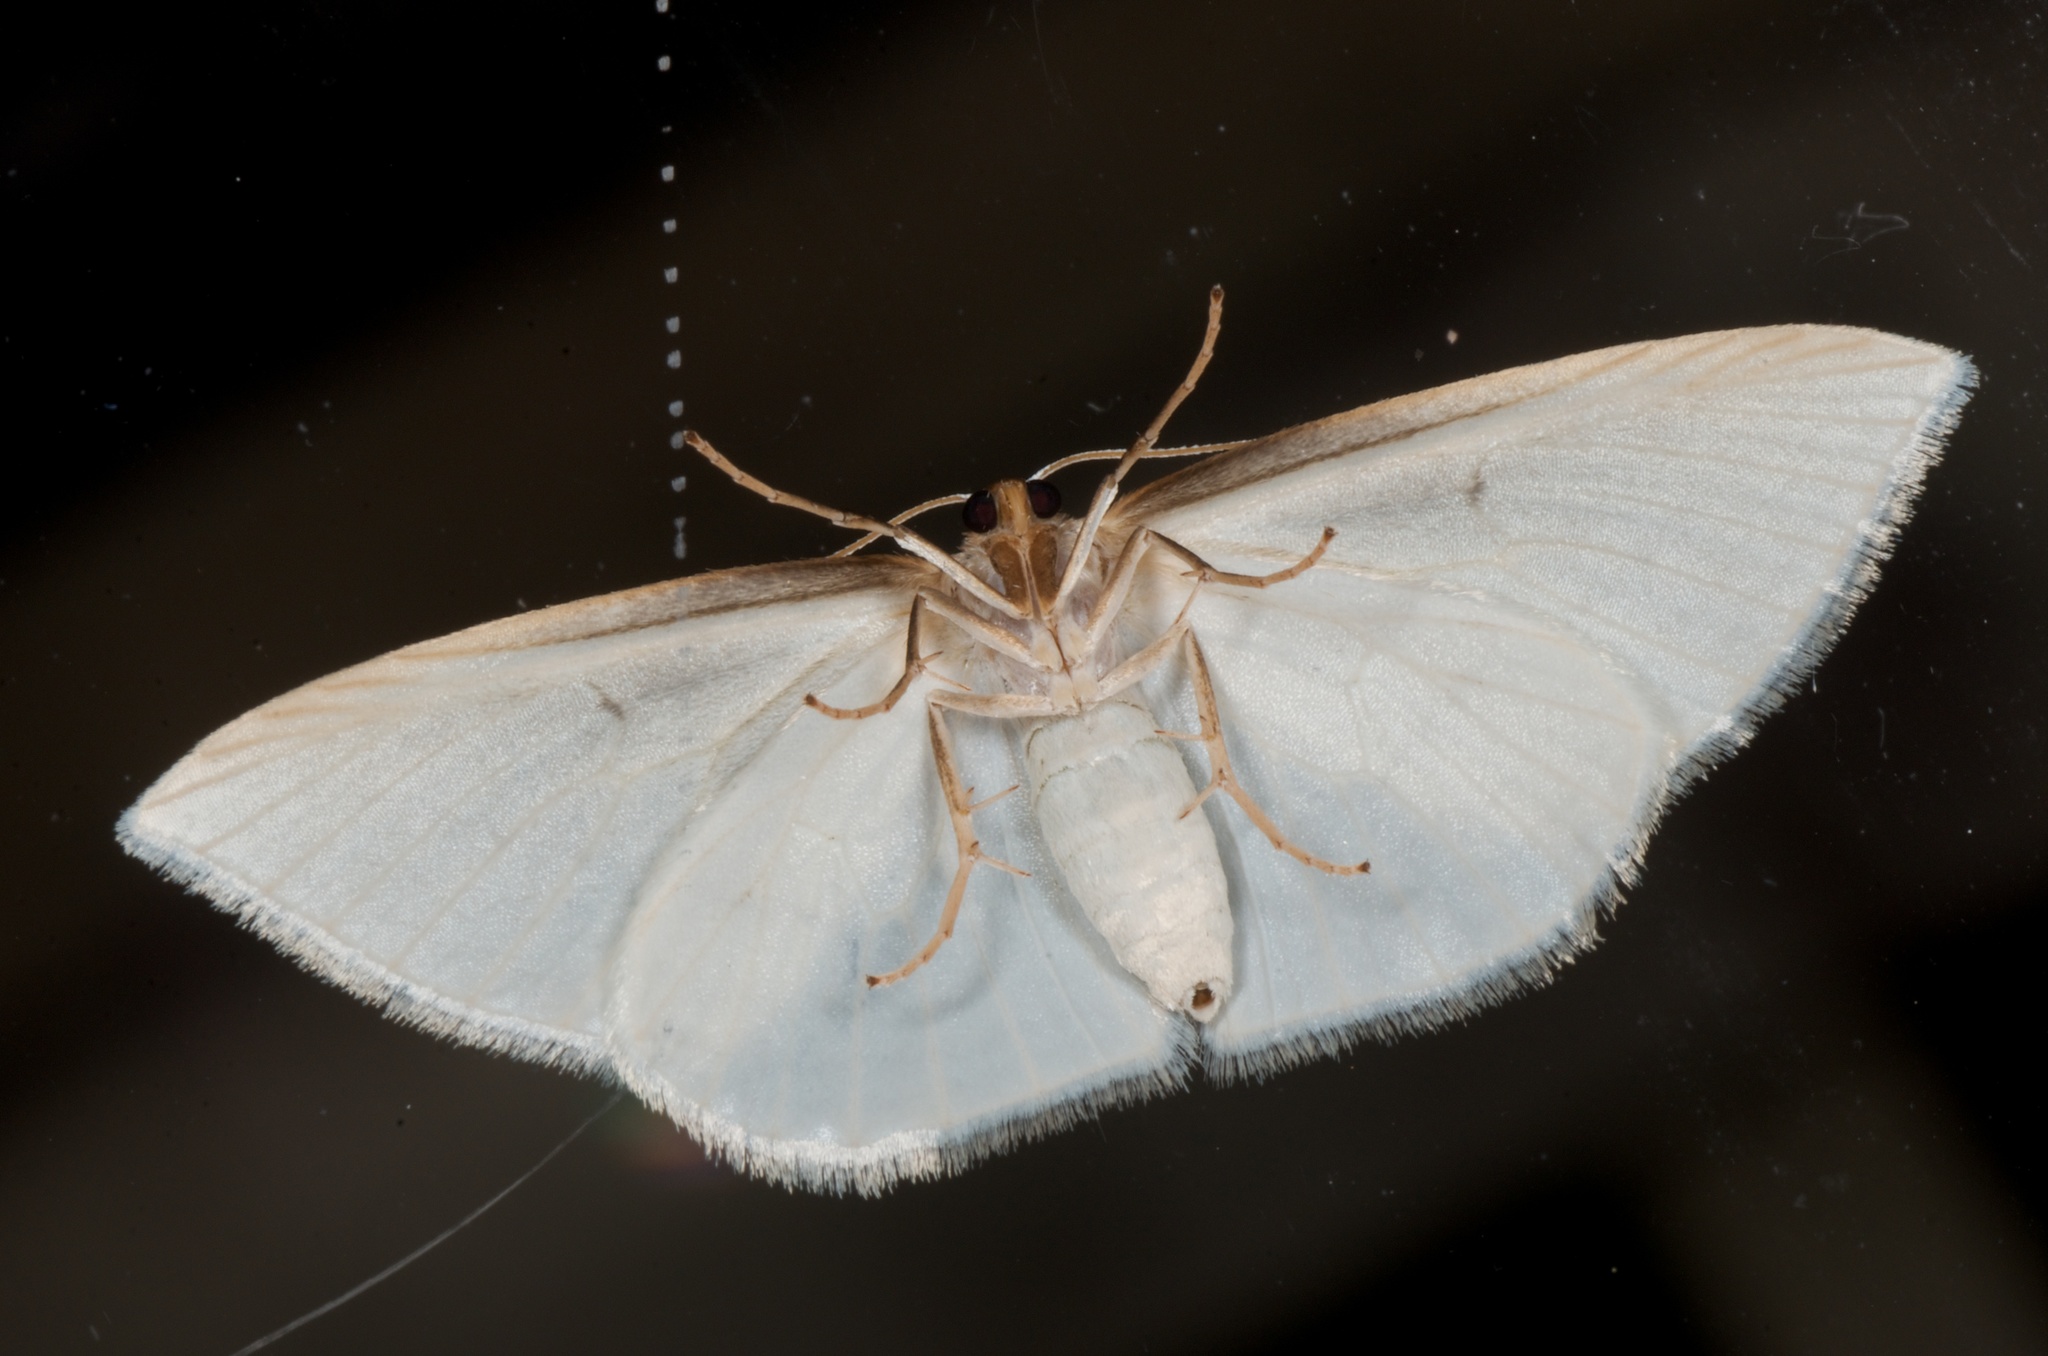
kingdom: Animalia
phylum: Arthropoda
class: Insecta
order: Lepidoptera
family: Geometridae
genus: Orthoclydon
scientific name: Orthoclydon praefectata
